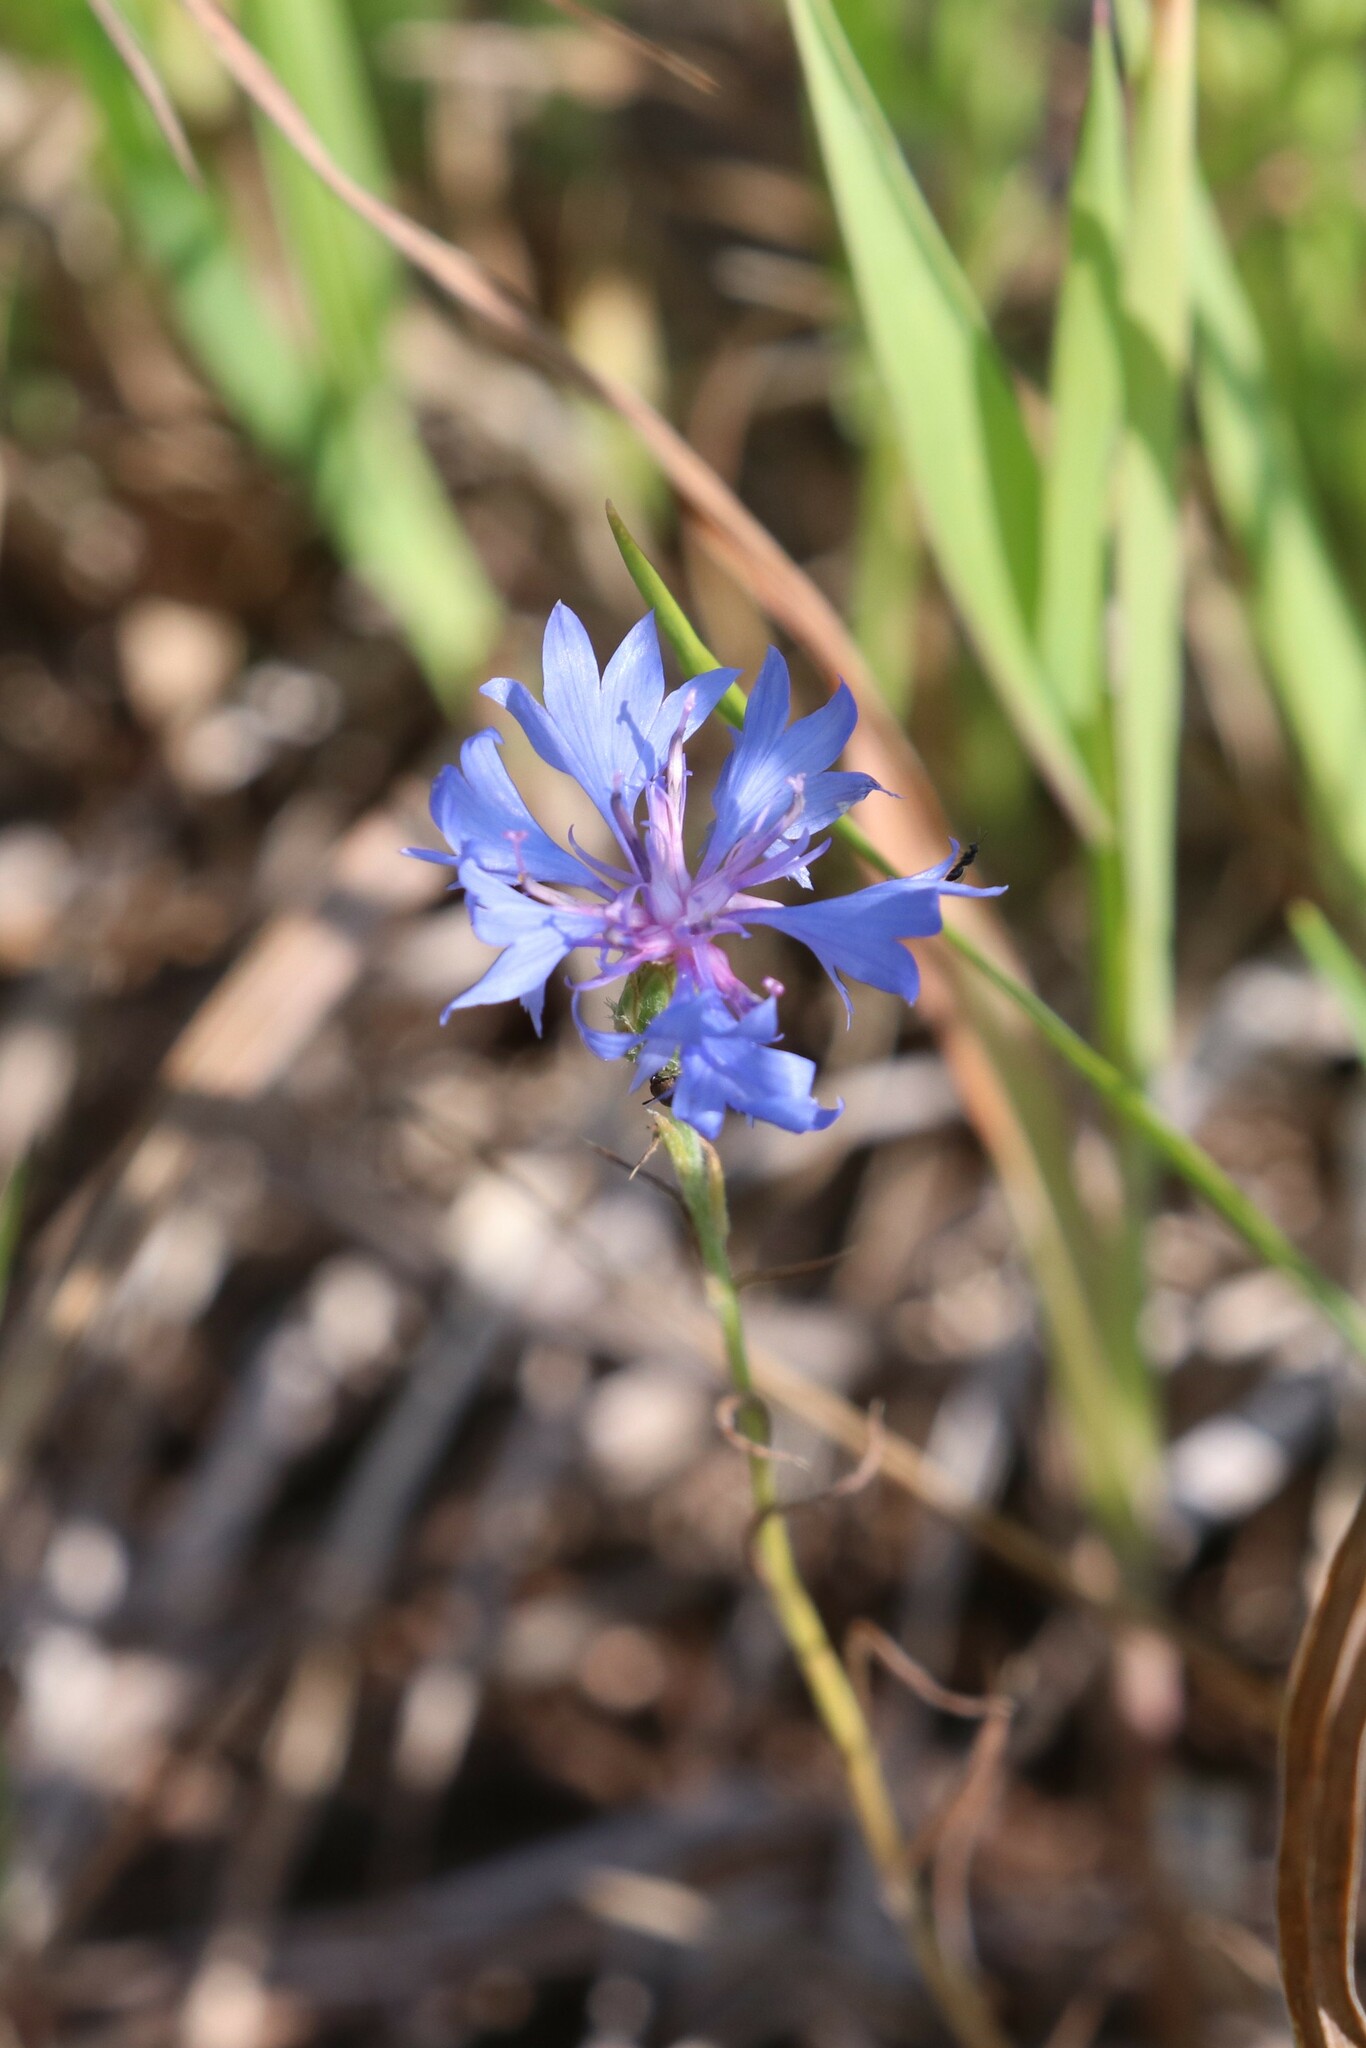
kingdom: Plantae
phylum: Tracheophyta
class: Magnoliopsida
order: Asterales
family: Asteraceae
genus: Centaurea
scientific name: Centaurea cyanus
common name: Cornflower
